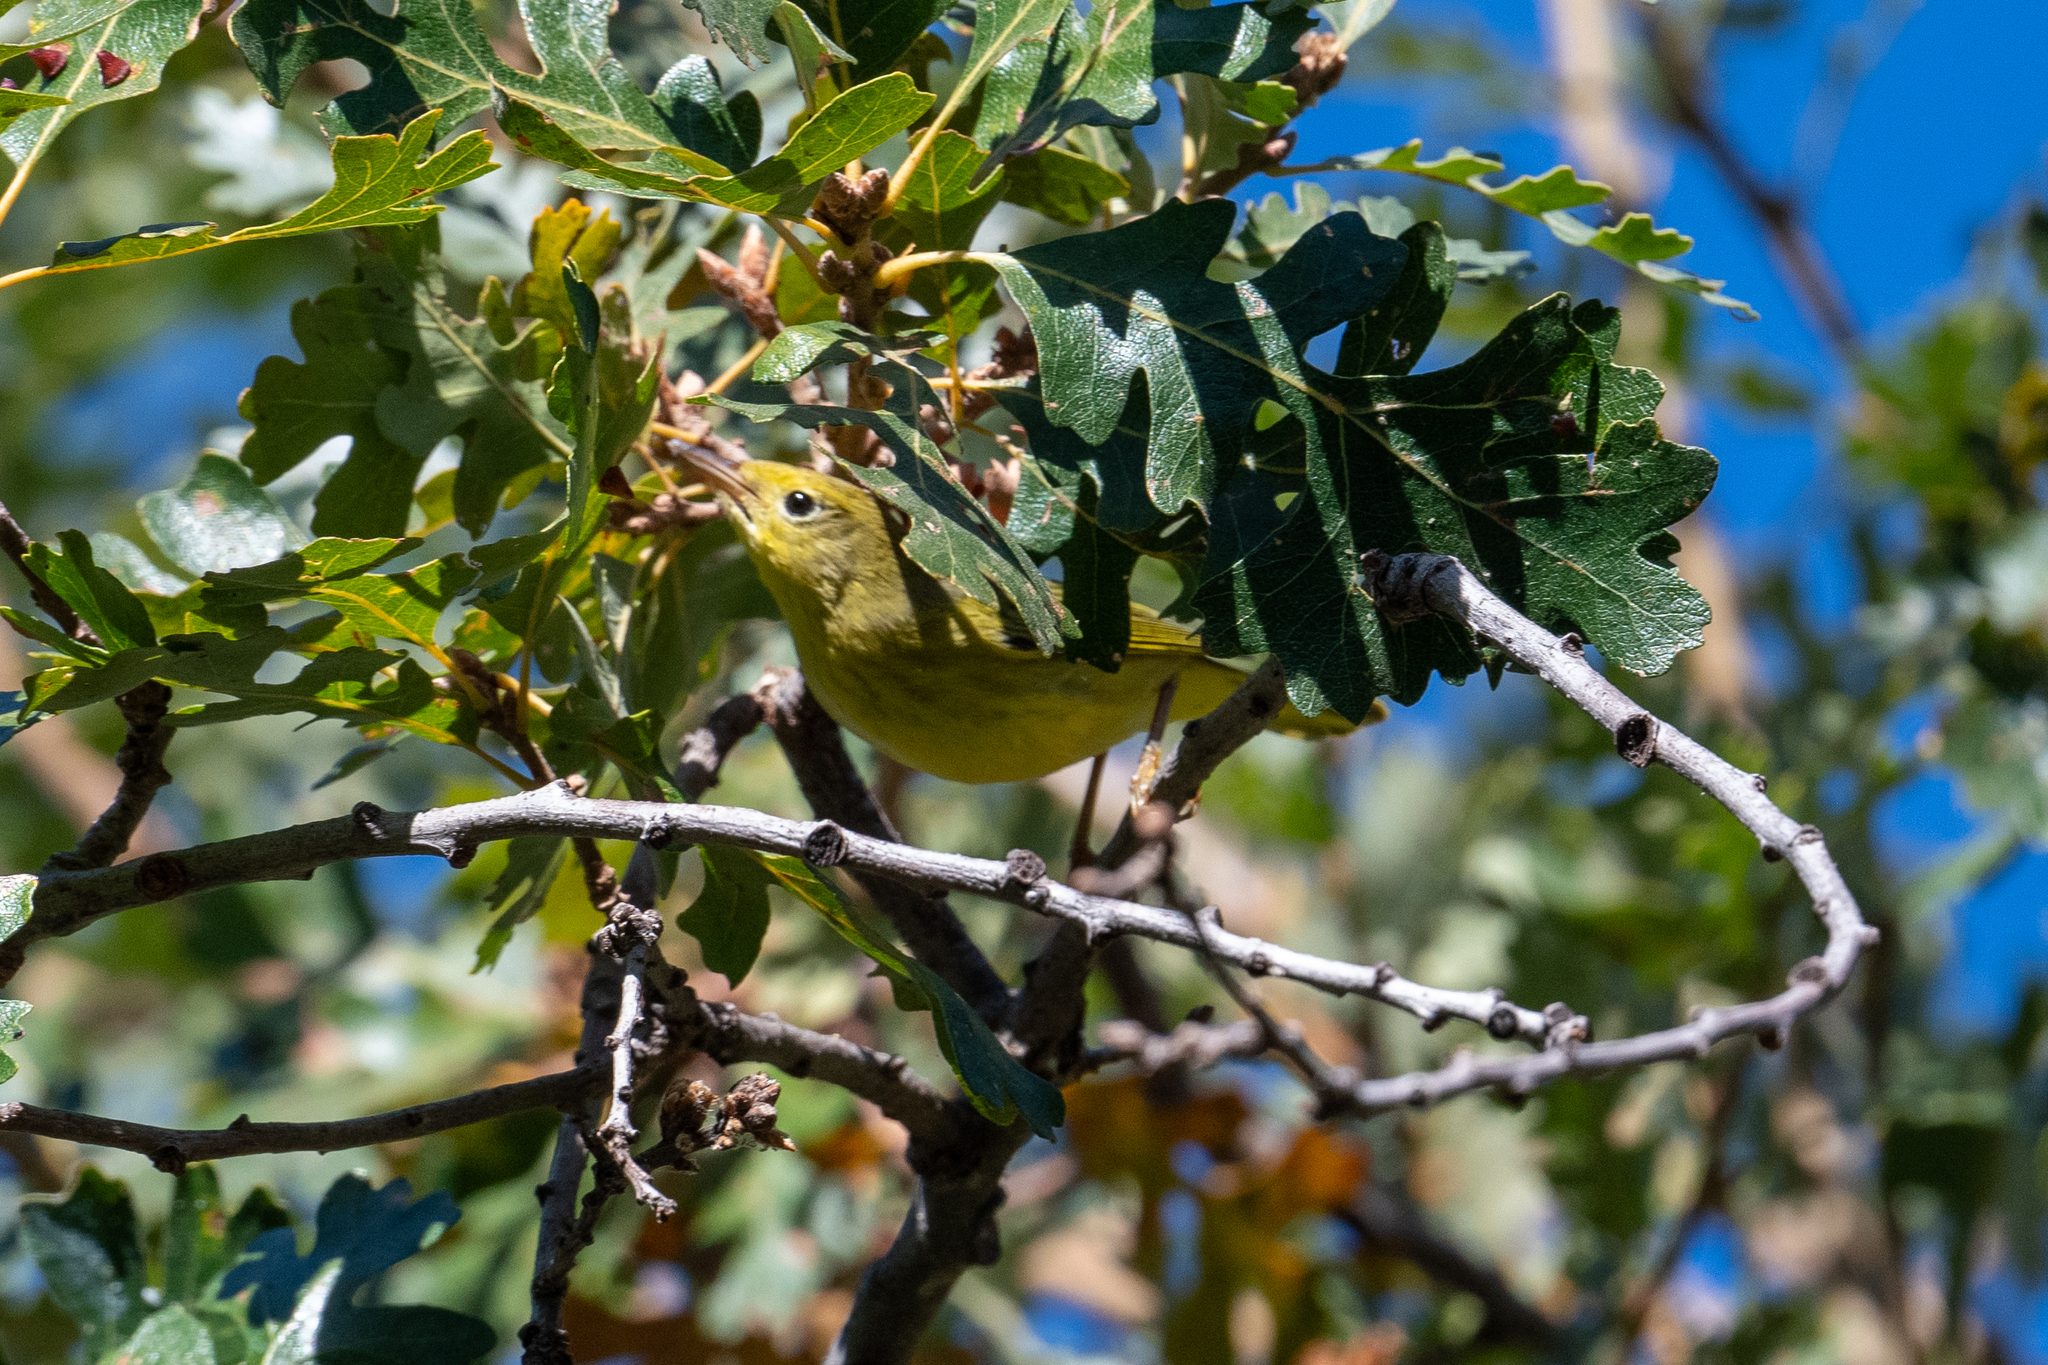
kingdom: Animalia
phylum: Chordata
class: Aves
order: Passeriformes
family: Parulidae
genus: Setophaga
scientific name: Setophaga petechia
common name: Yellow warbler
